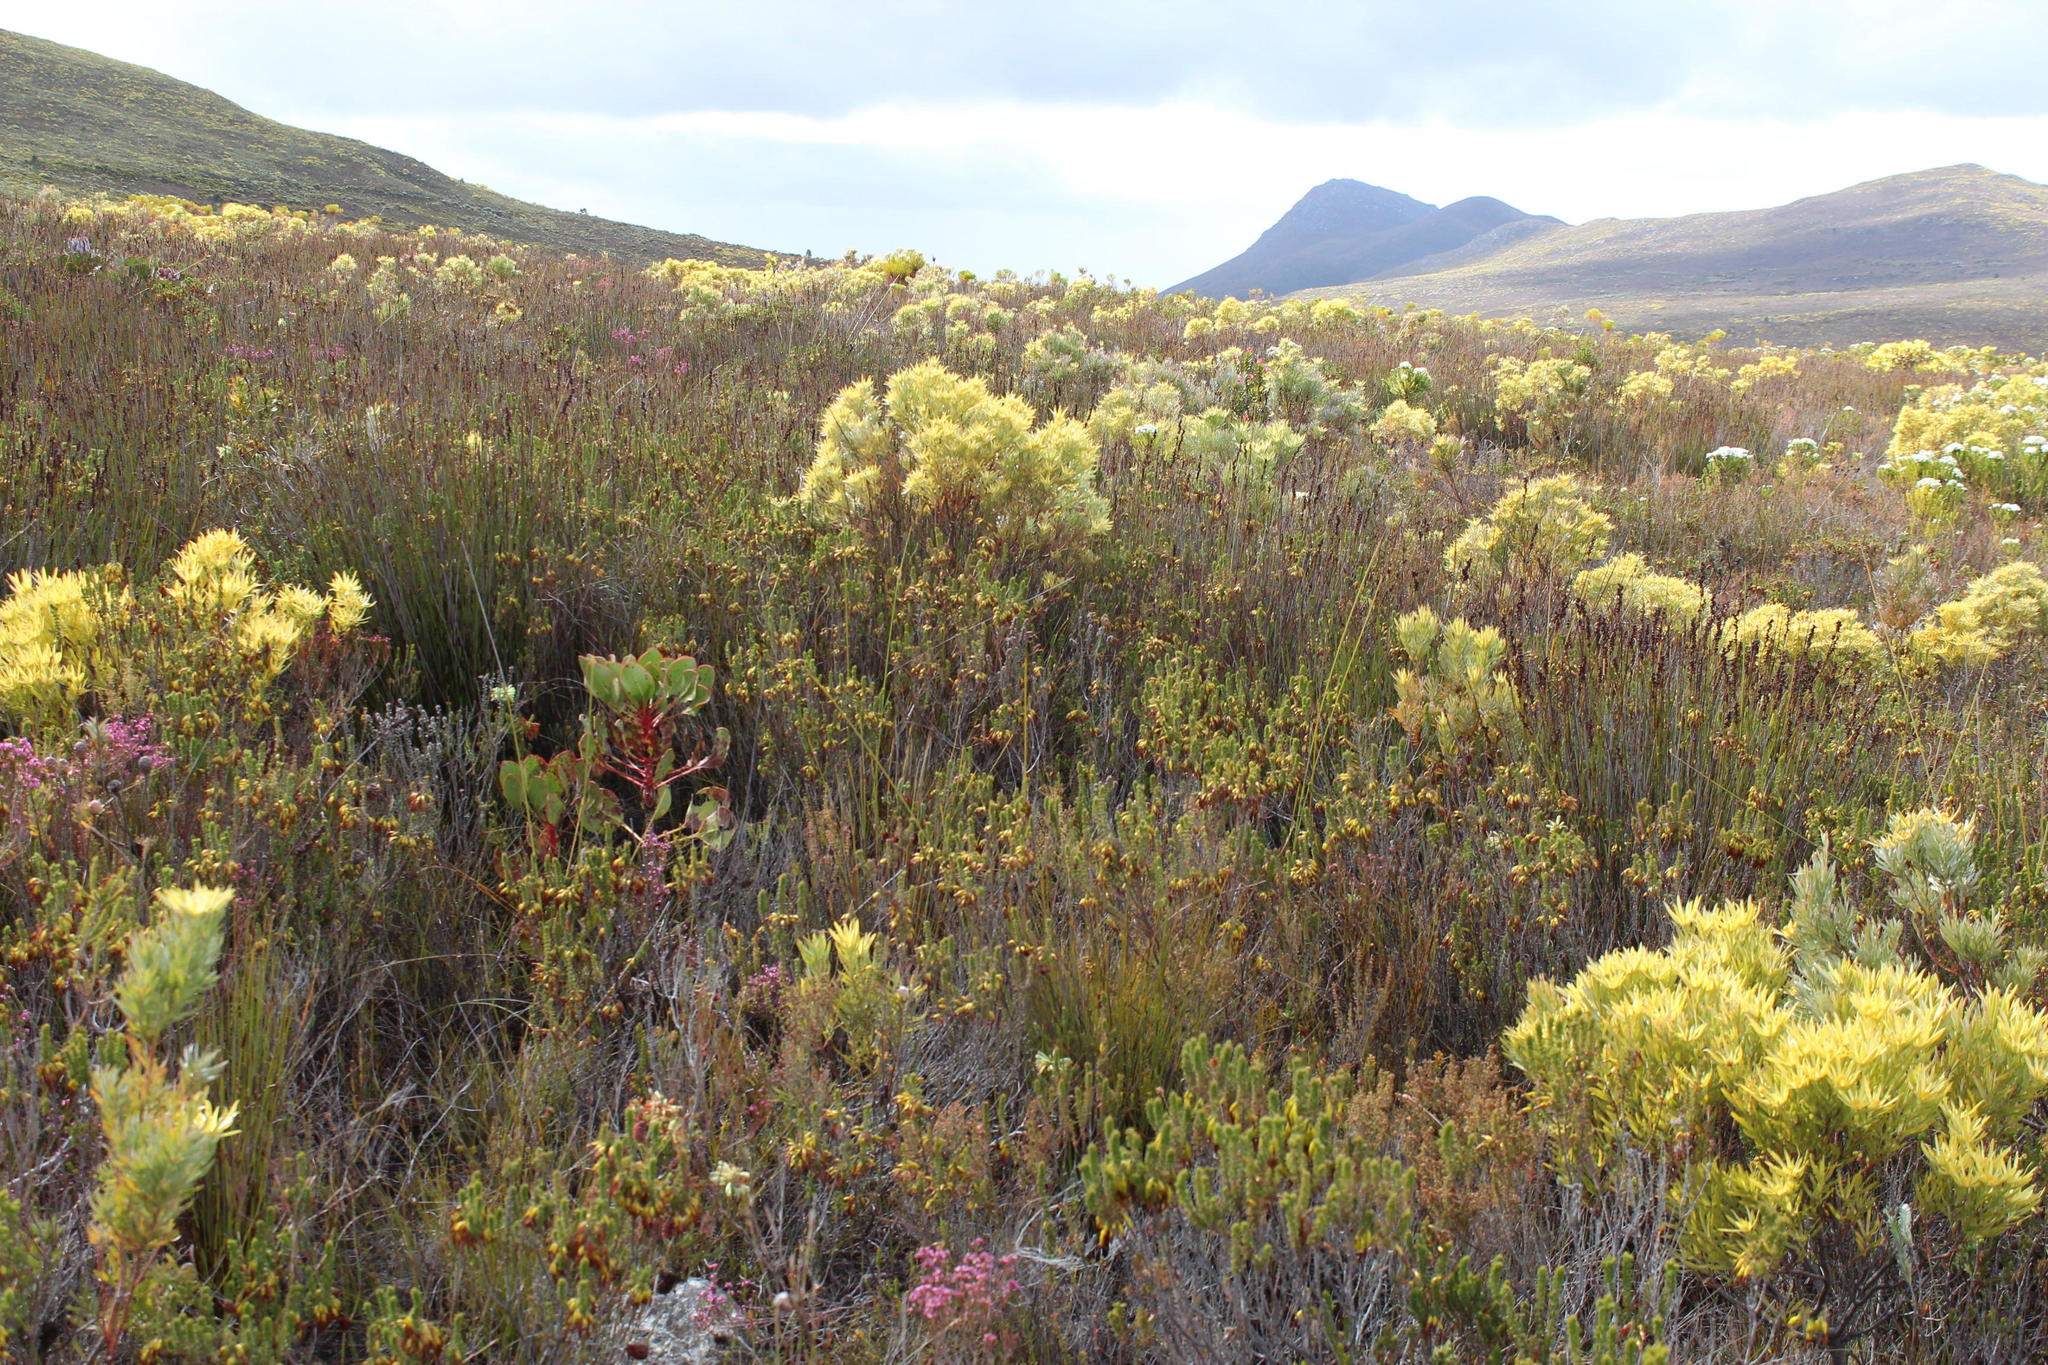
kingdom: Plantae
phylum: Tracheophyta
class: Magnoliopsida
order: Proteales
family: Proteaceae
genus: Leucadendron
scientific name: Leucadendron xanthoconus
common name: Sickle-leaf conebush
